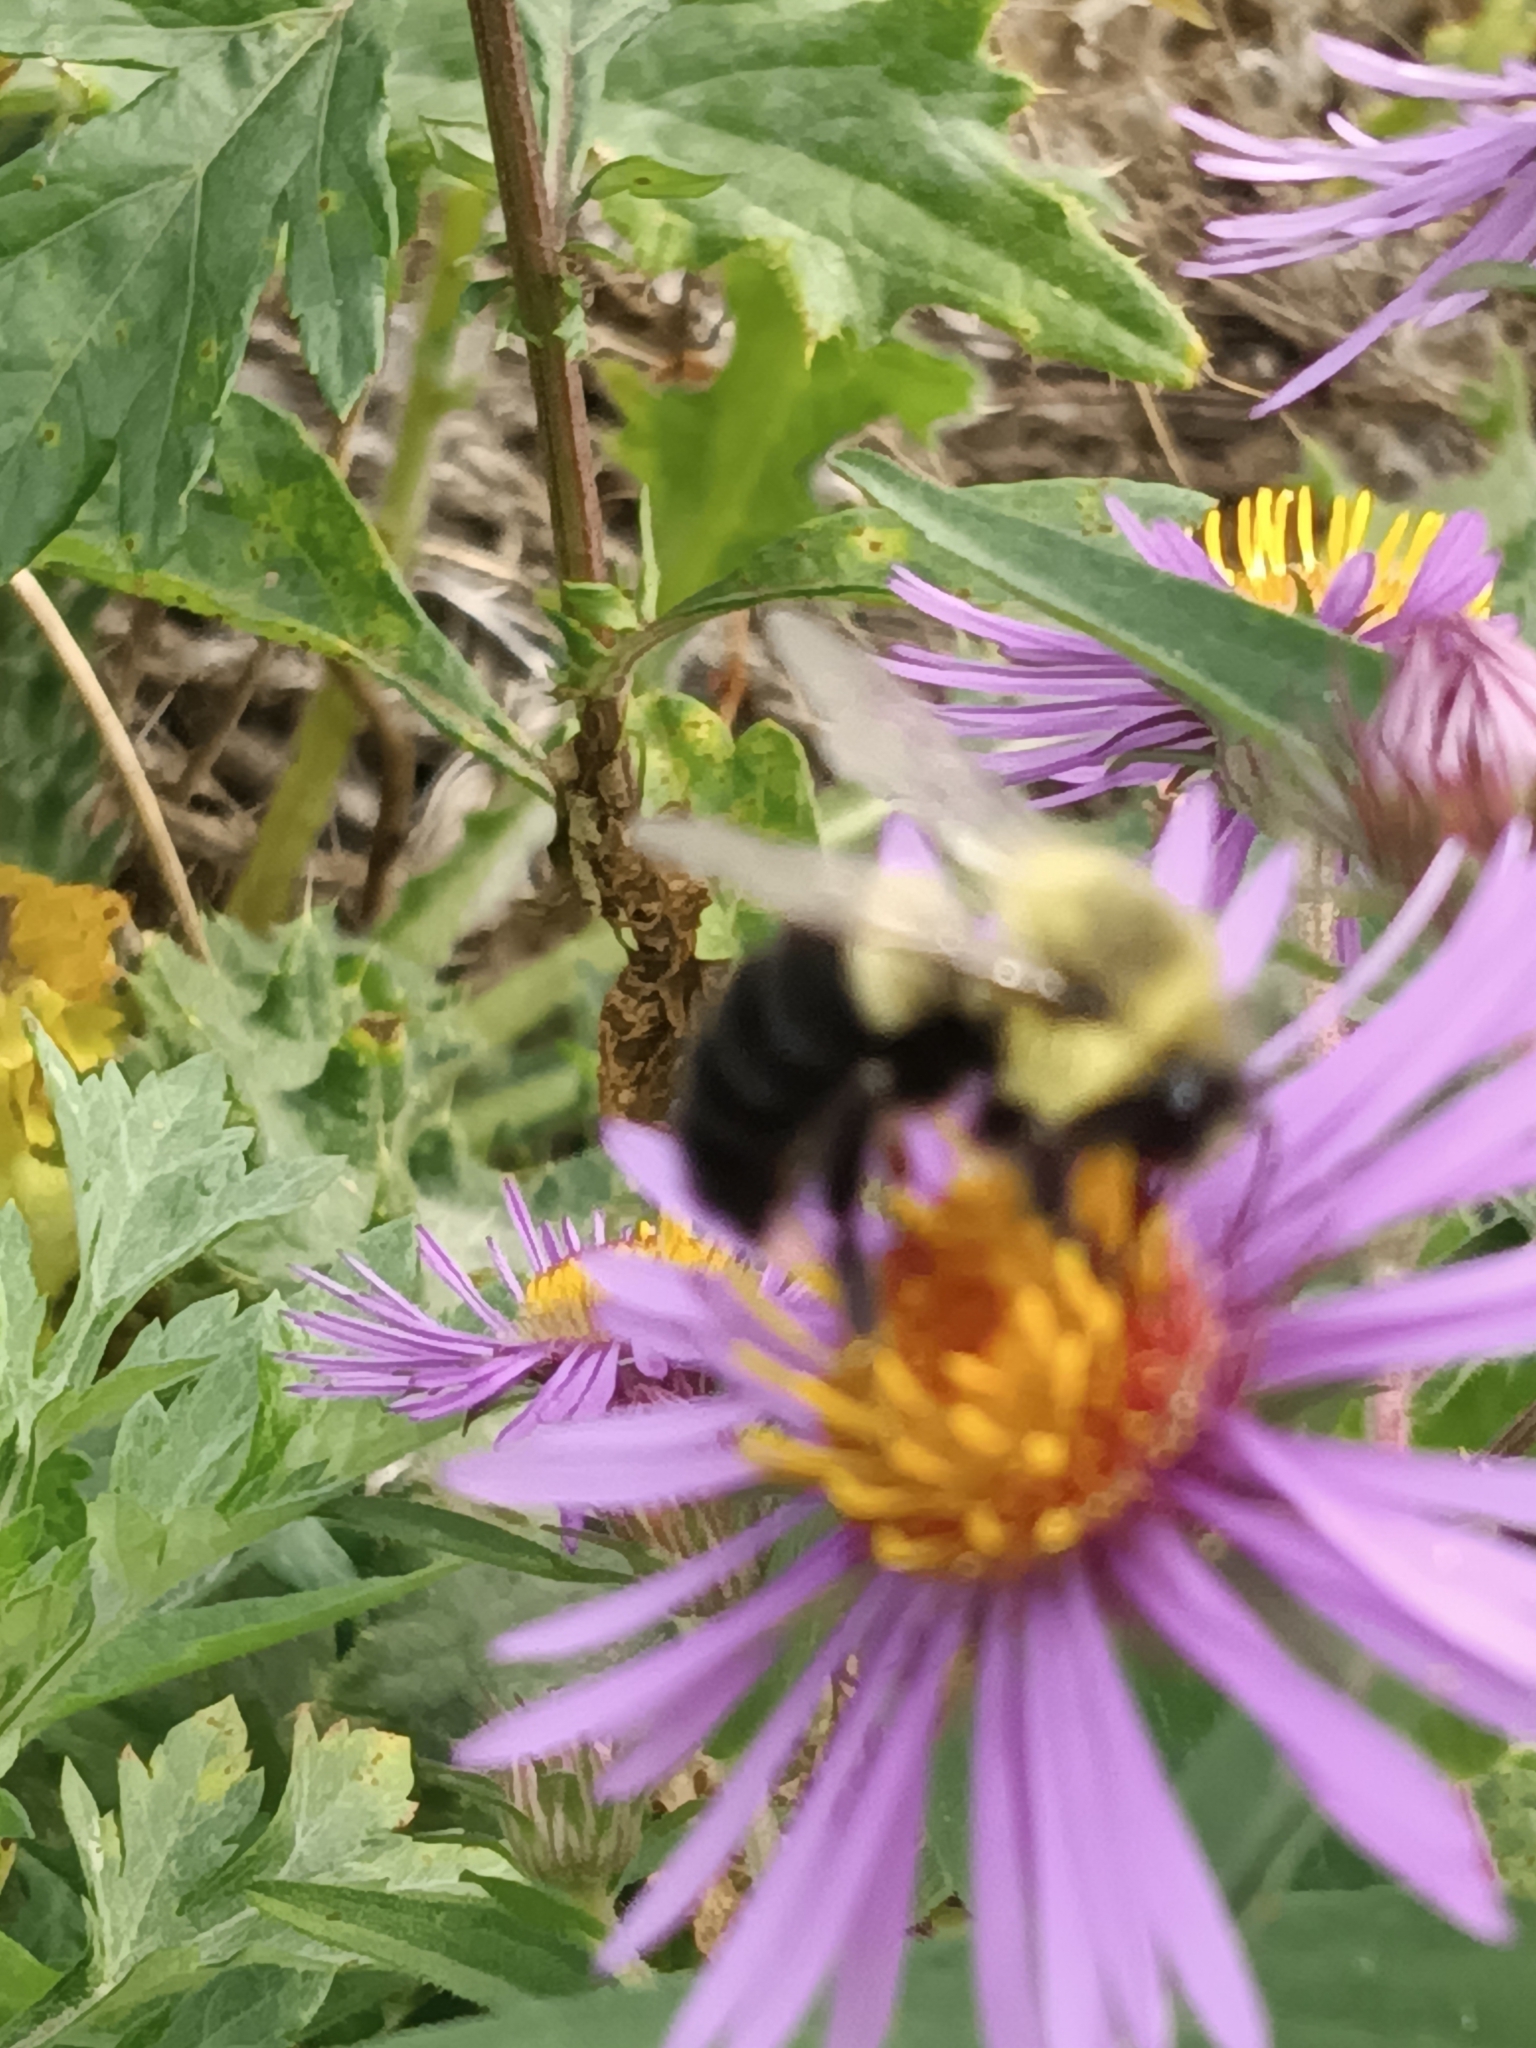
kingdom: Animalia
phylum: Arthropoda
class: Insecta
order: Hymenoptera
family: Apidae
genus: Bombus
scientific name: Bombus impatiens
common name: Common eastern bumble bee
